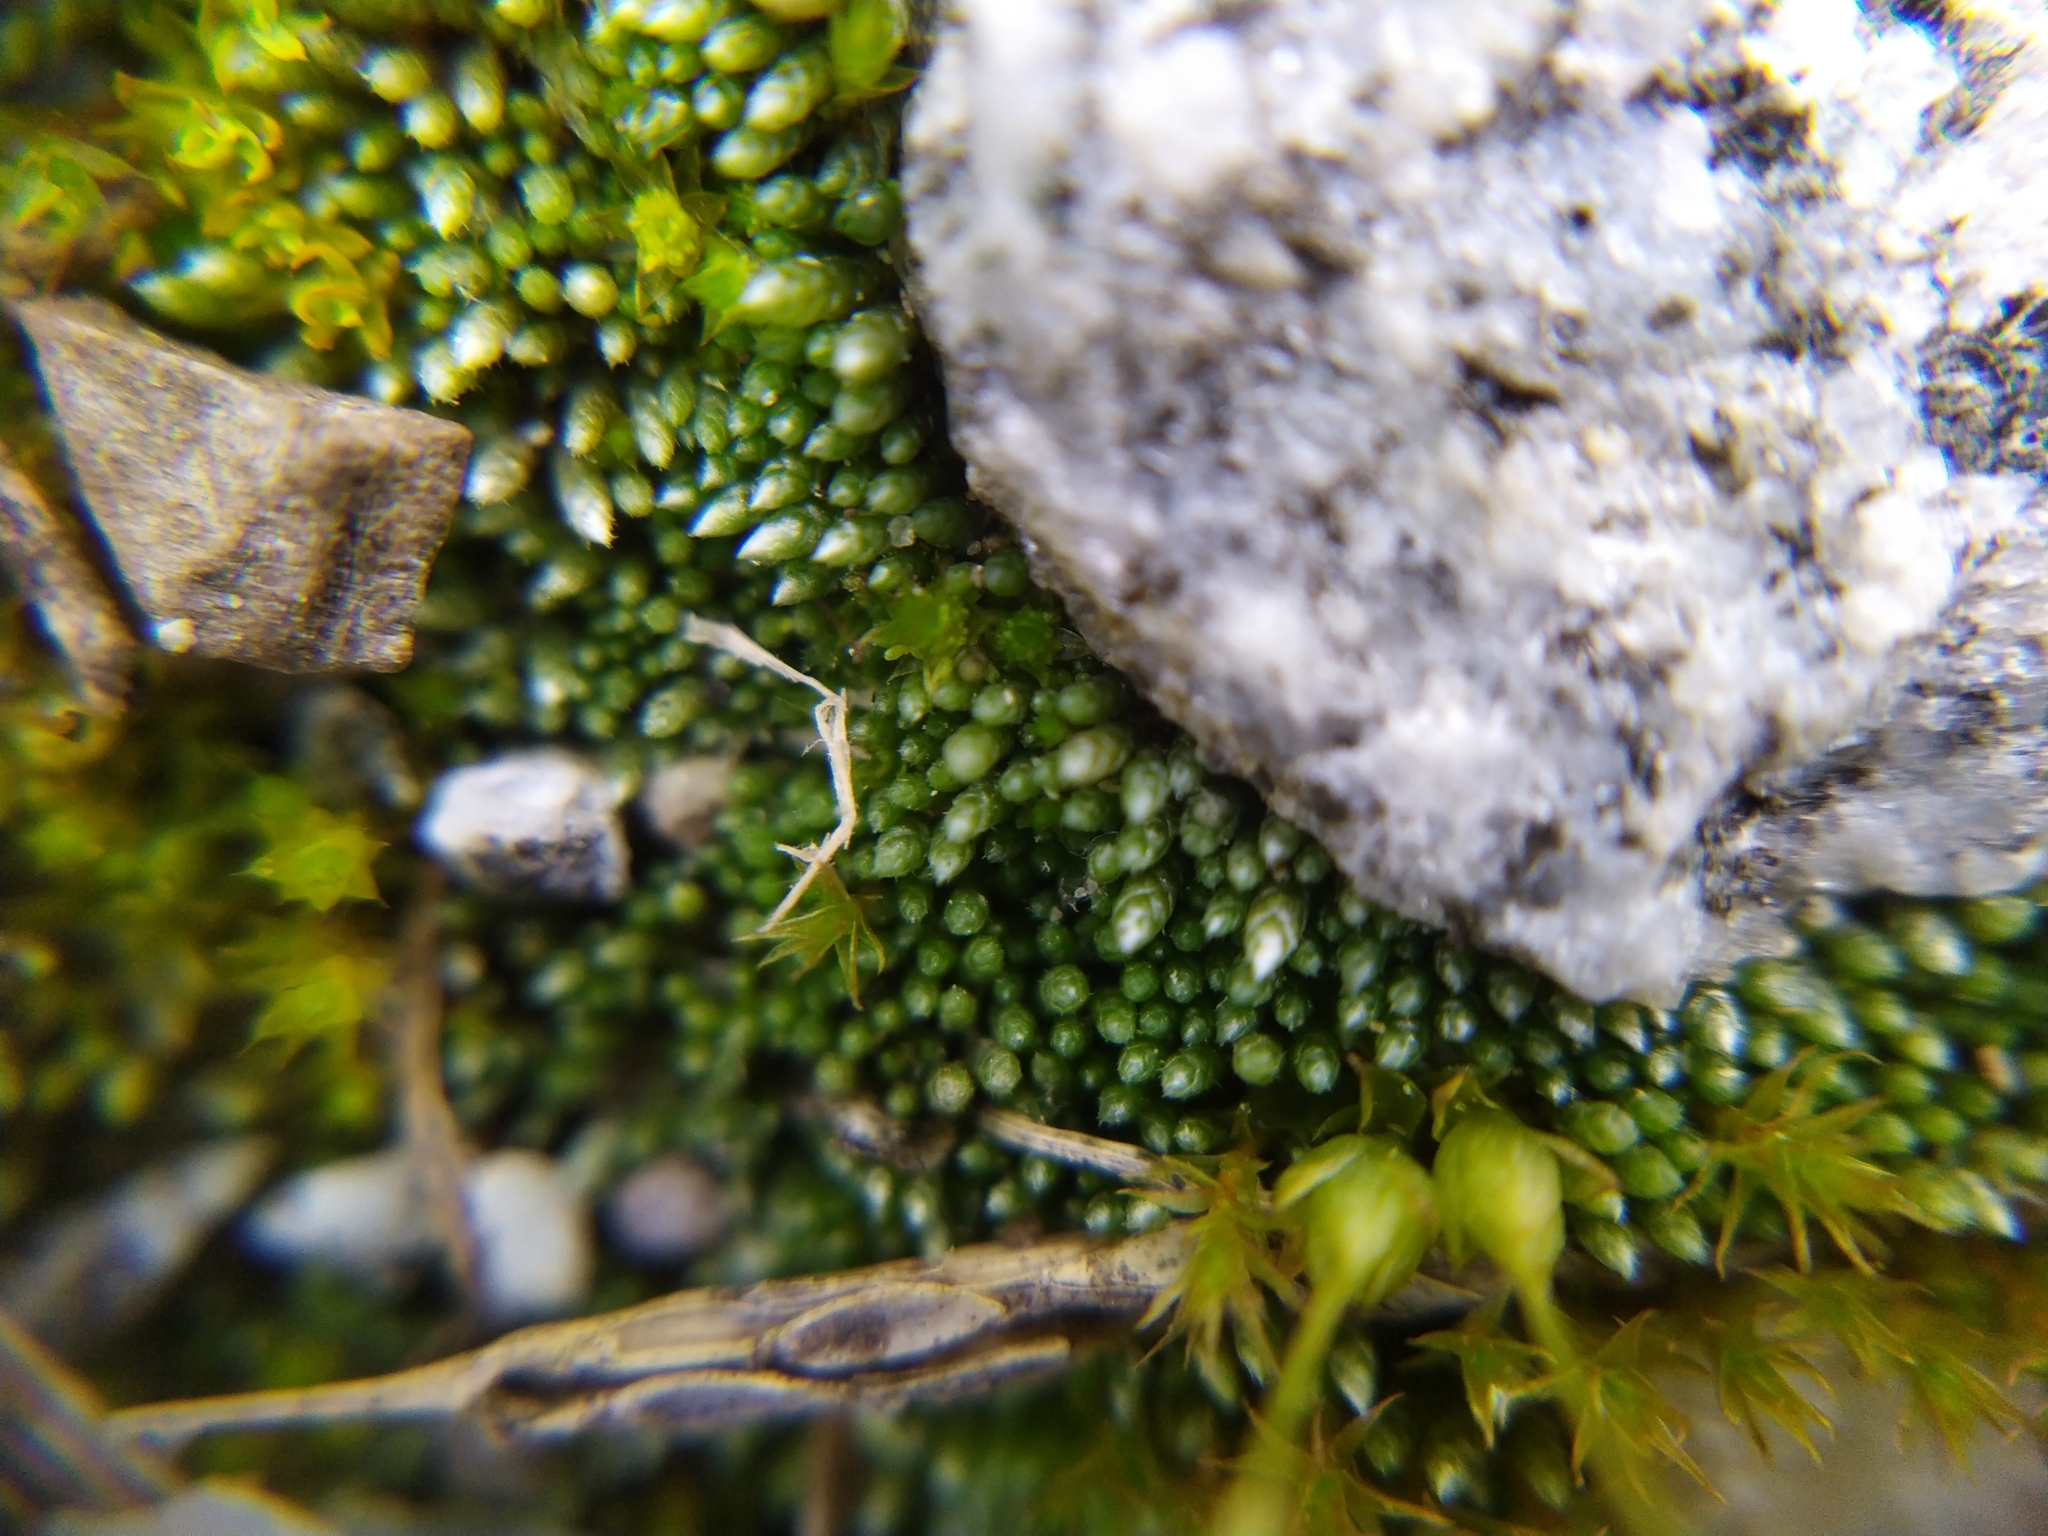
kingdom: Plantae
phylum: Bryophyta
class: Bryopsida
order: Bryales
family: Bryaceae
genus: Bryum
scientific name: Bryum argenteum
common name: Silver-moss
